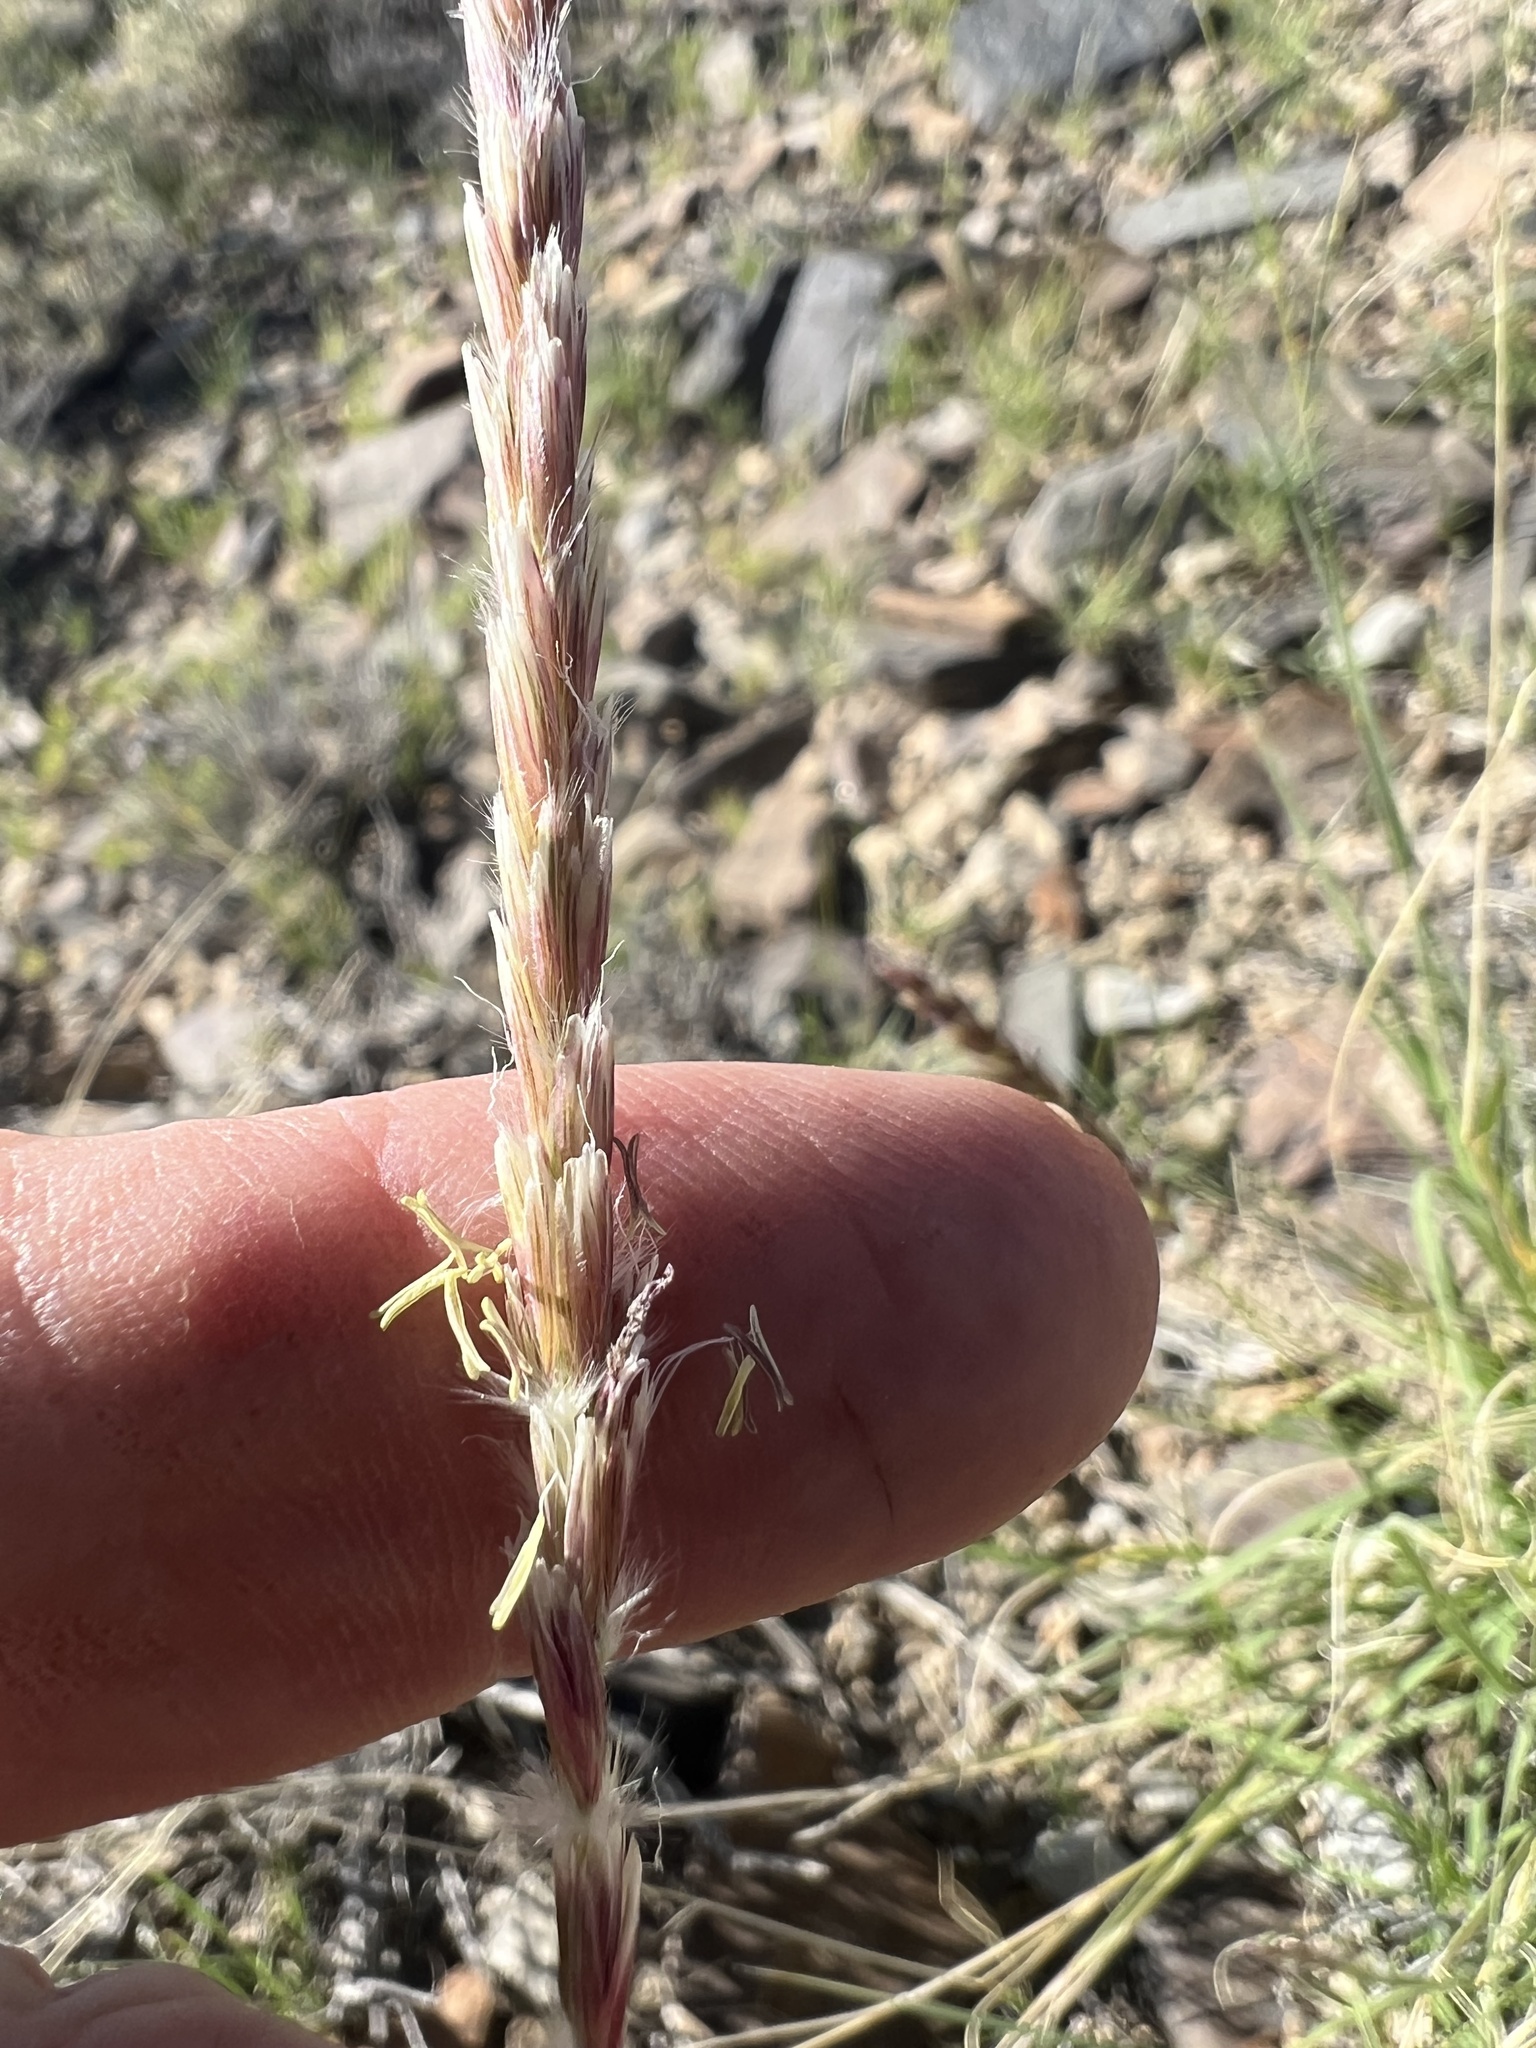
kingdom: Plantae
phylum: Tracheophyta
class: Liliopsida
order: Poales
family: Poaceae
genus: Hilaria
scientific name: Hilaria jamesii
